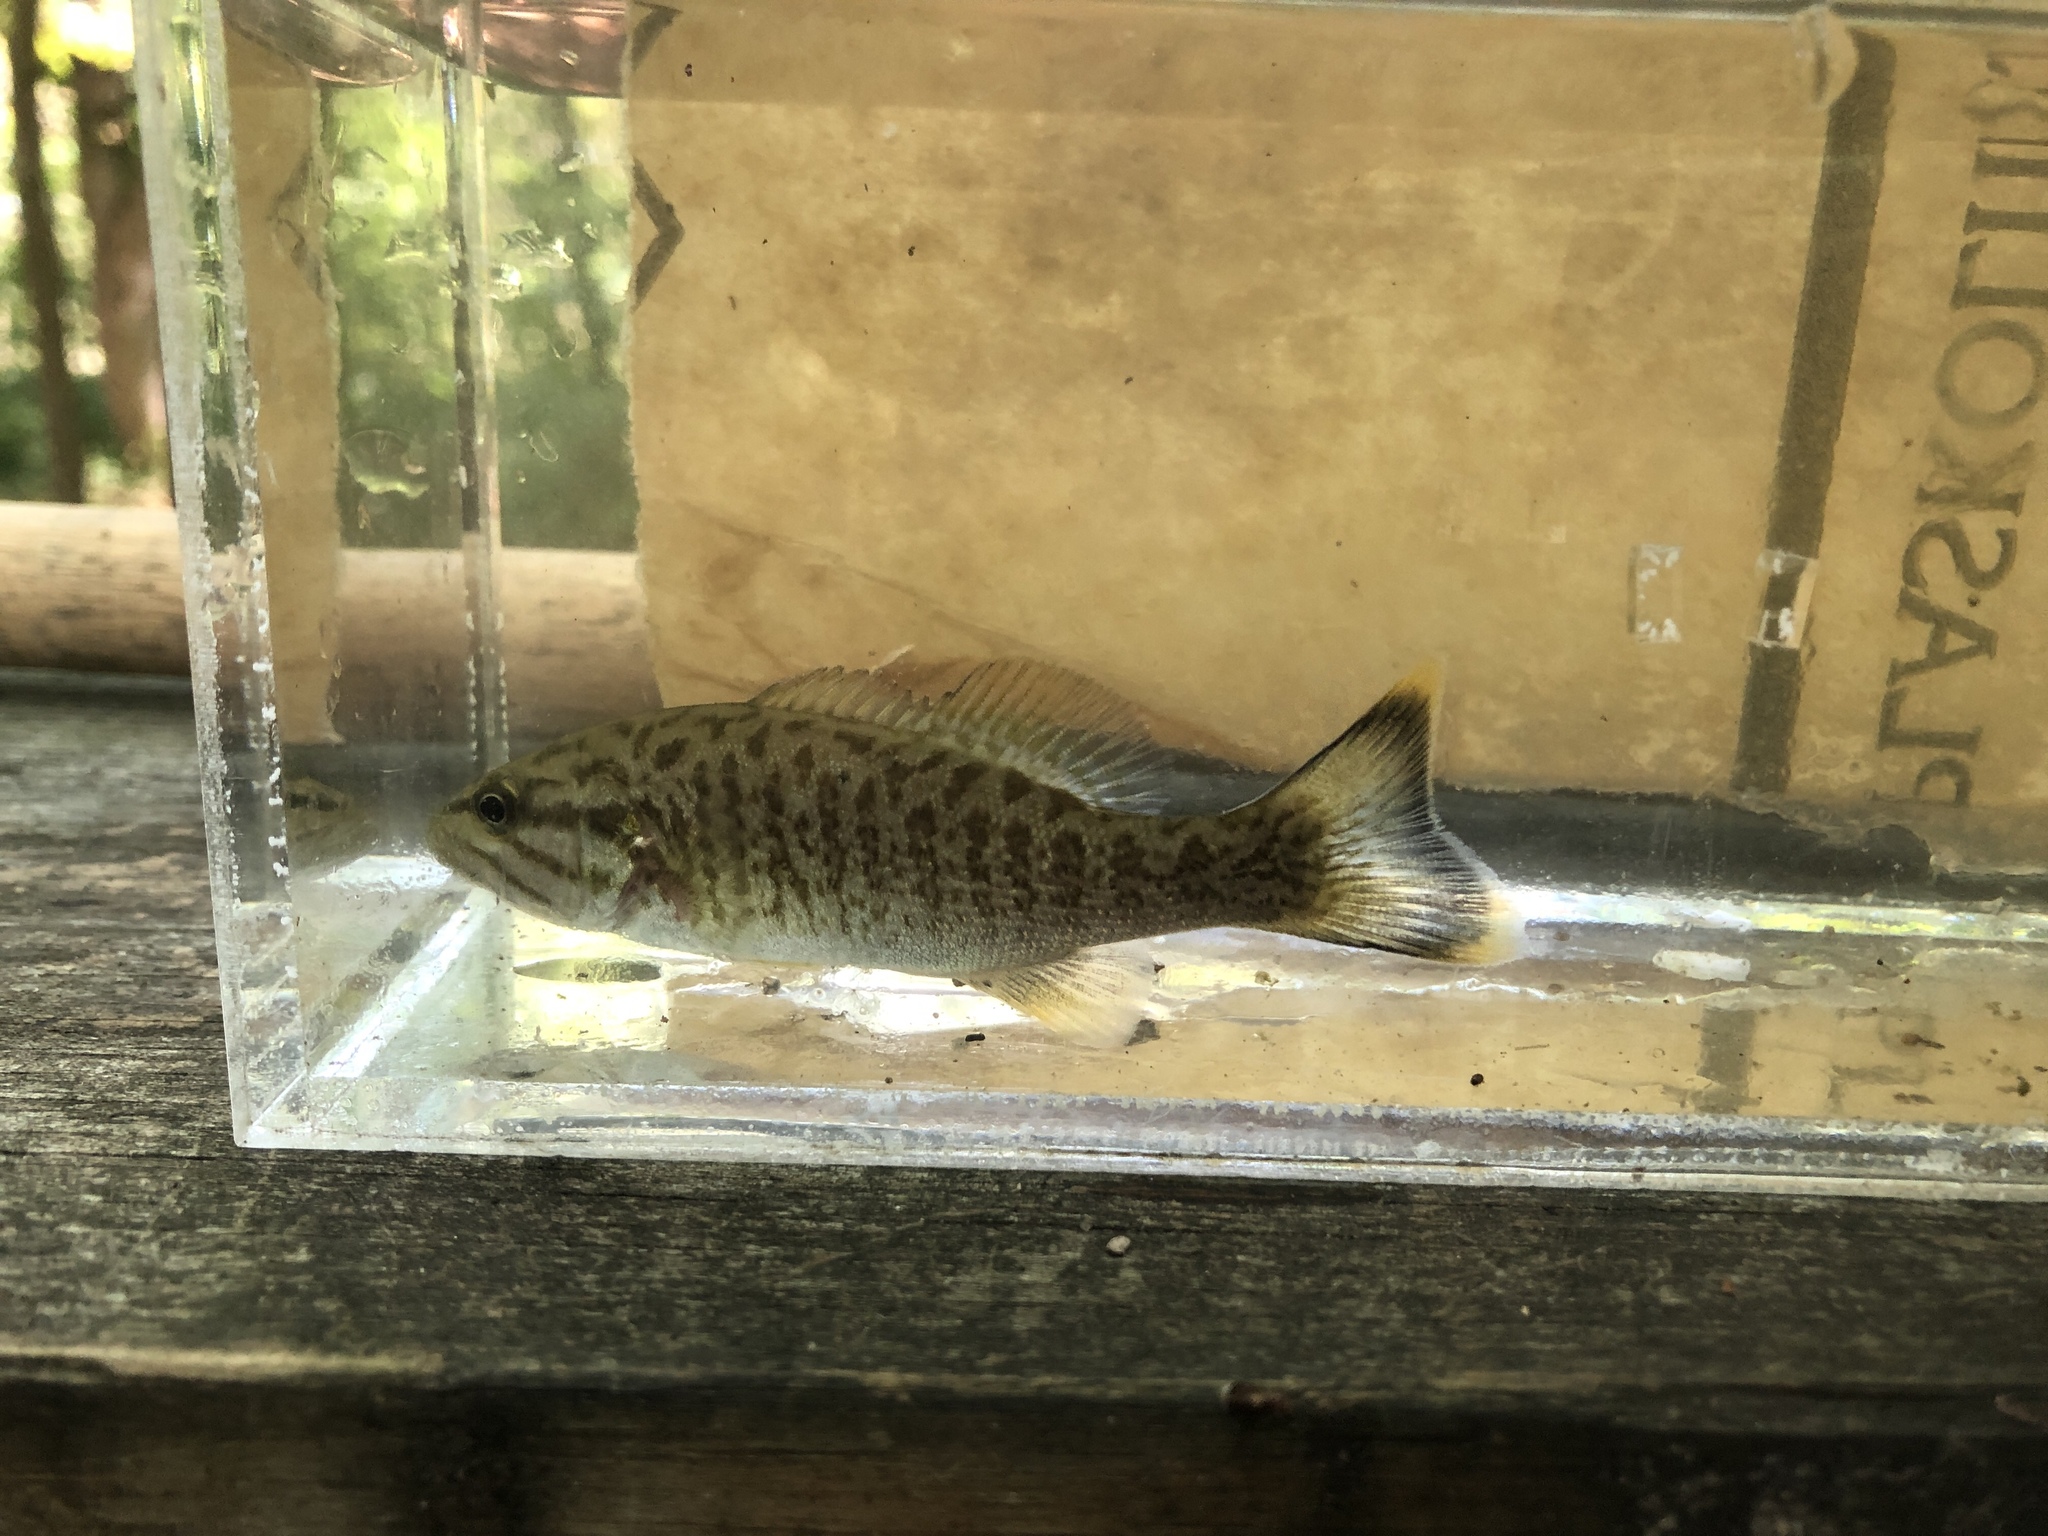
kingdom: Animalia
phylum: Chordata
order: Perciformes
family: Centrarchidae
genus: Micropterus
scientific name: Micropterus dolomieu
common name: Smallmouth bass
